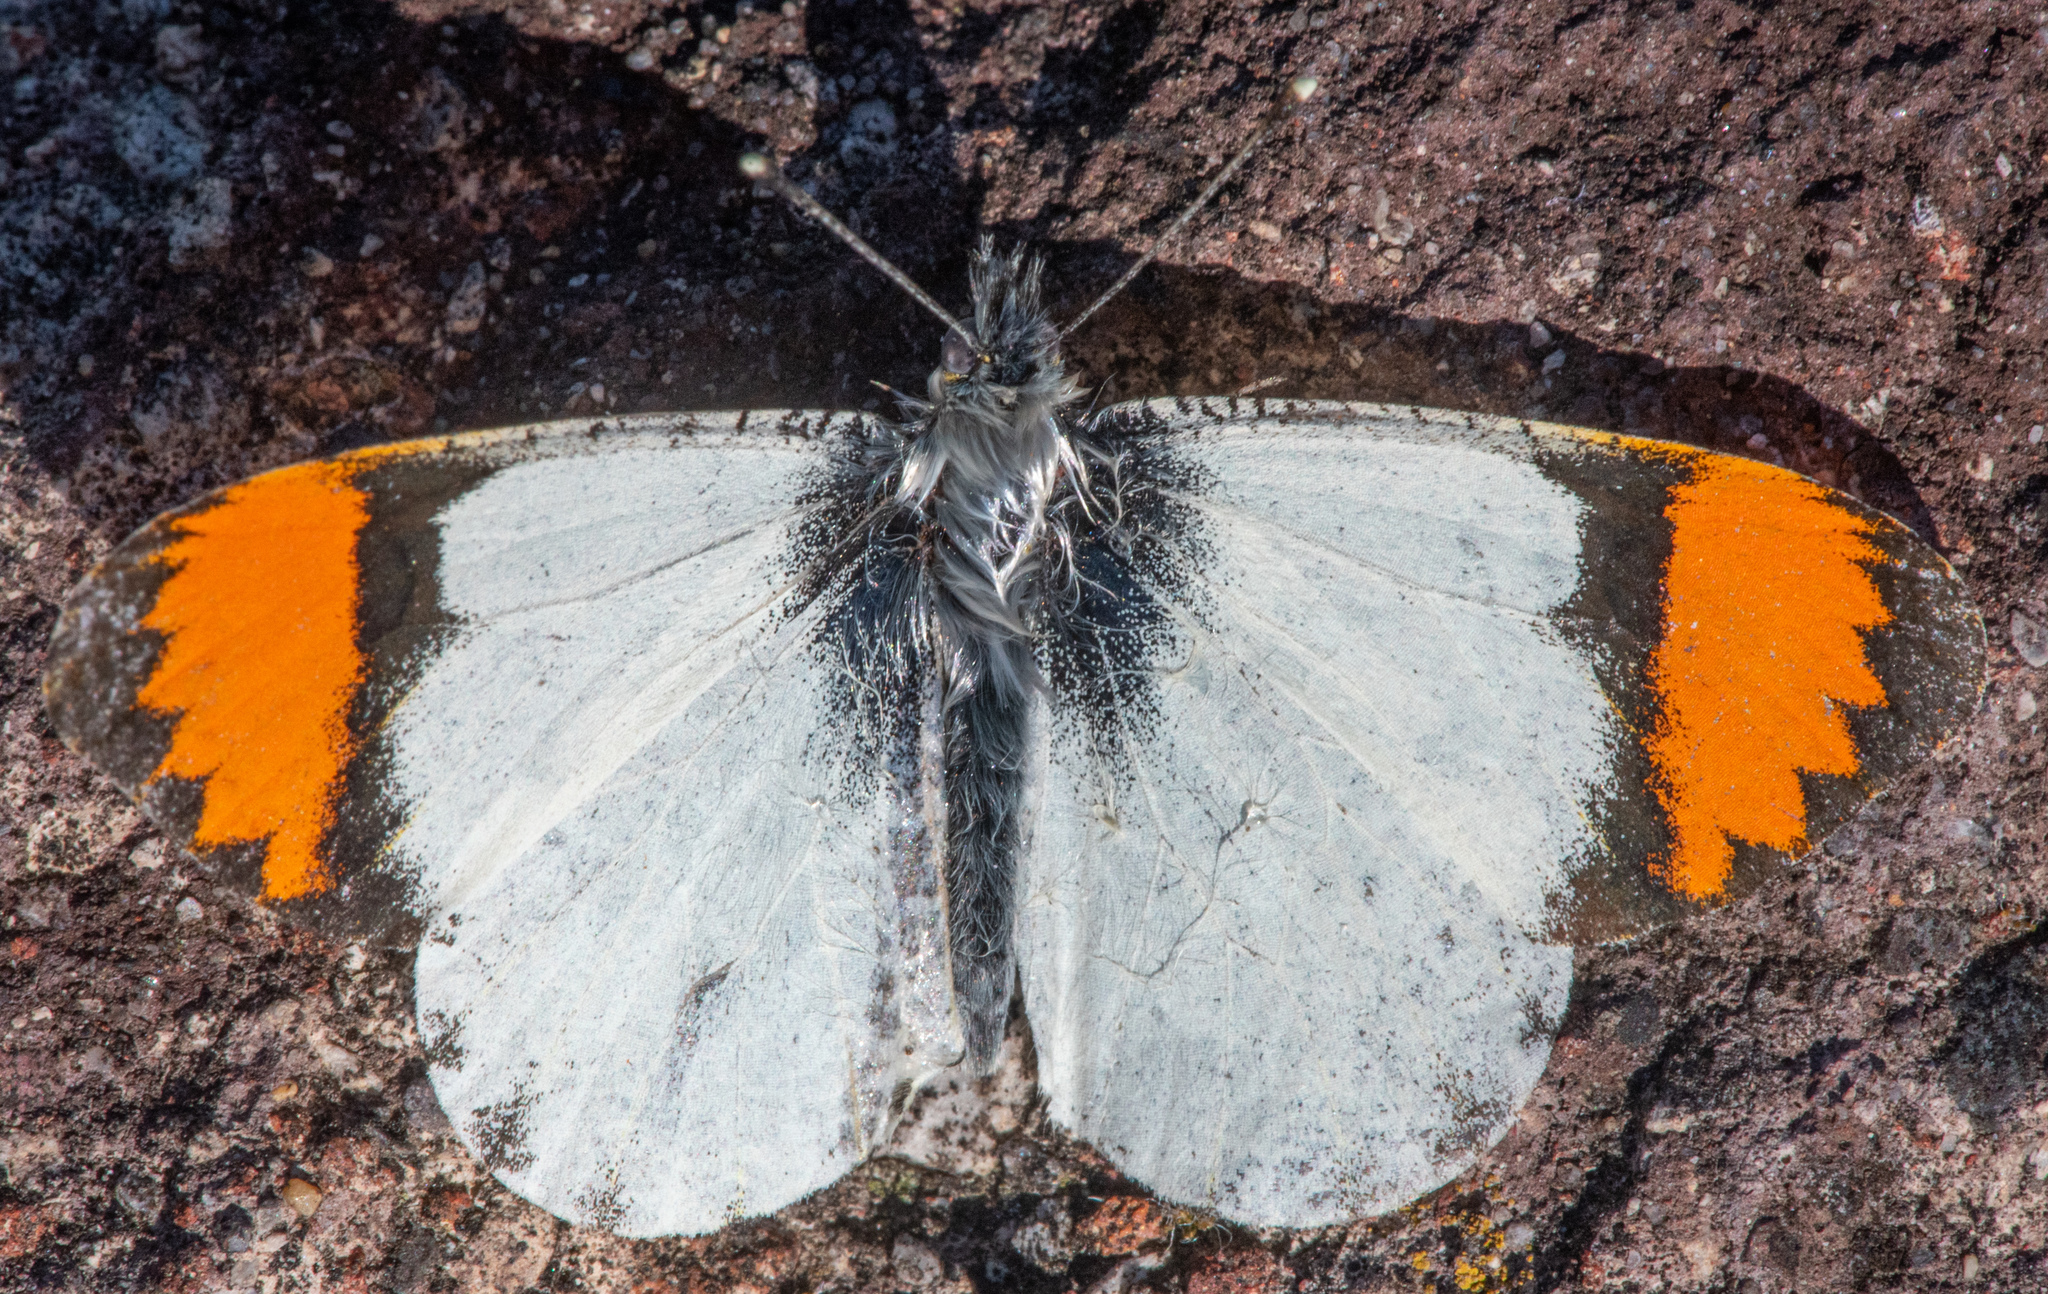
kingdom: Animalia
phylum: Arthropoda
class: Insecta
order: Lepidoptera
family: Pieridae
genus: Anthocharis
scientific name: Anthocharis sara
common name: Sara's orangetip
